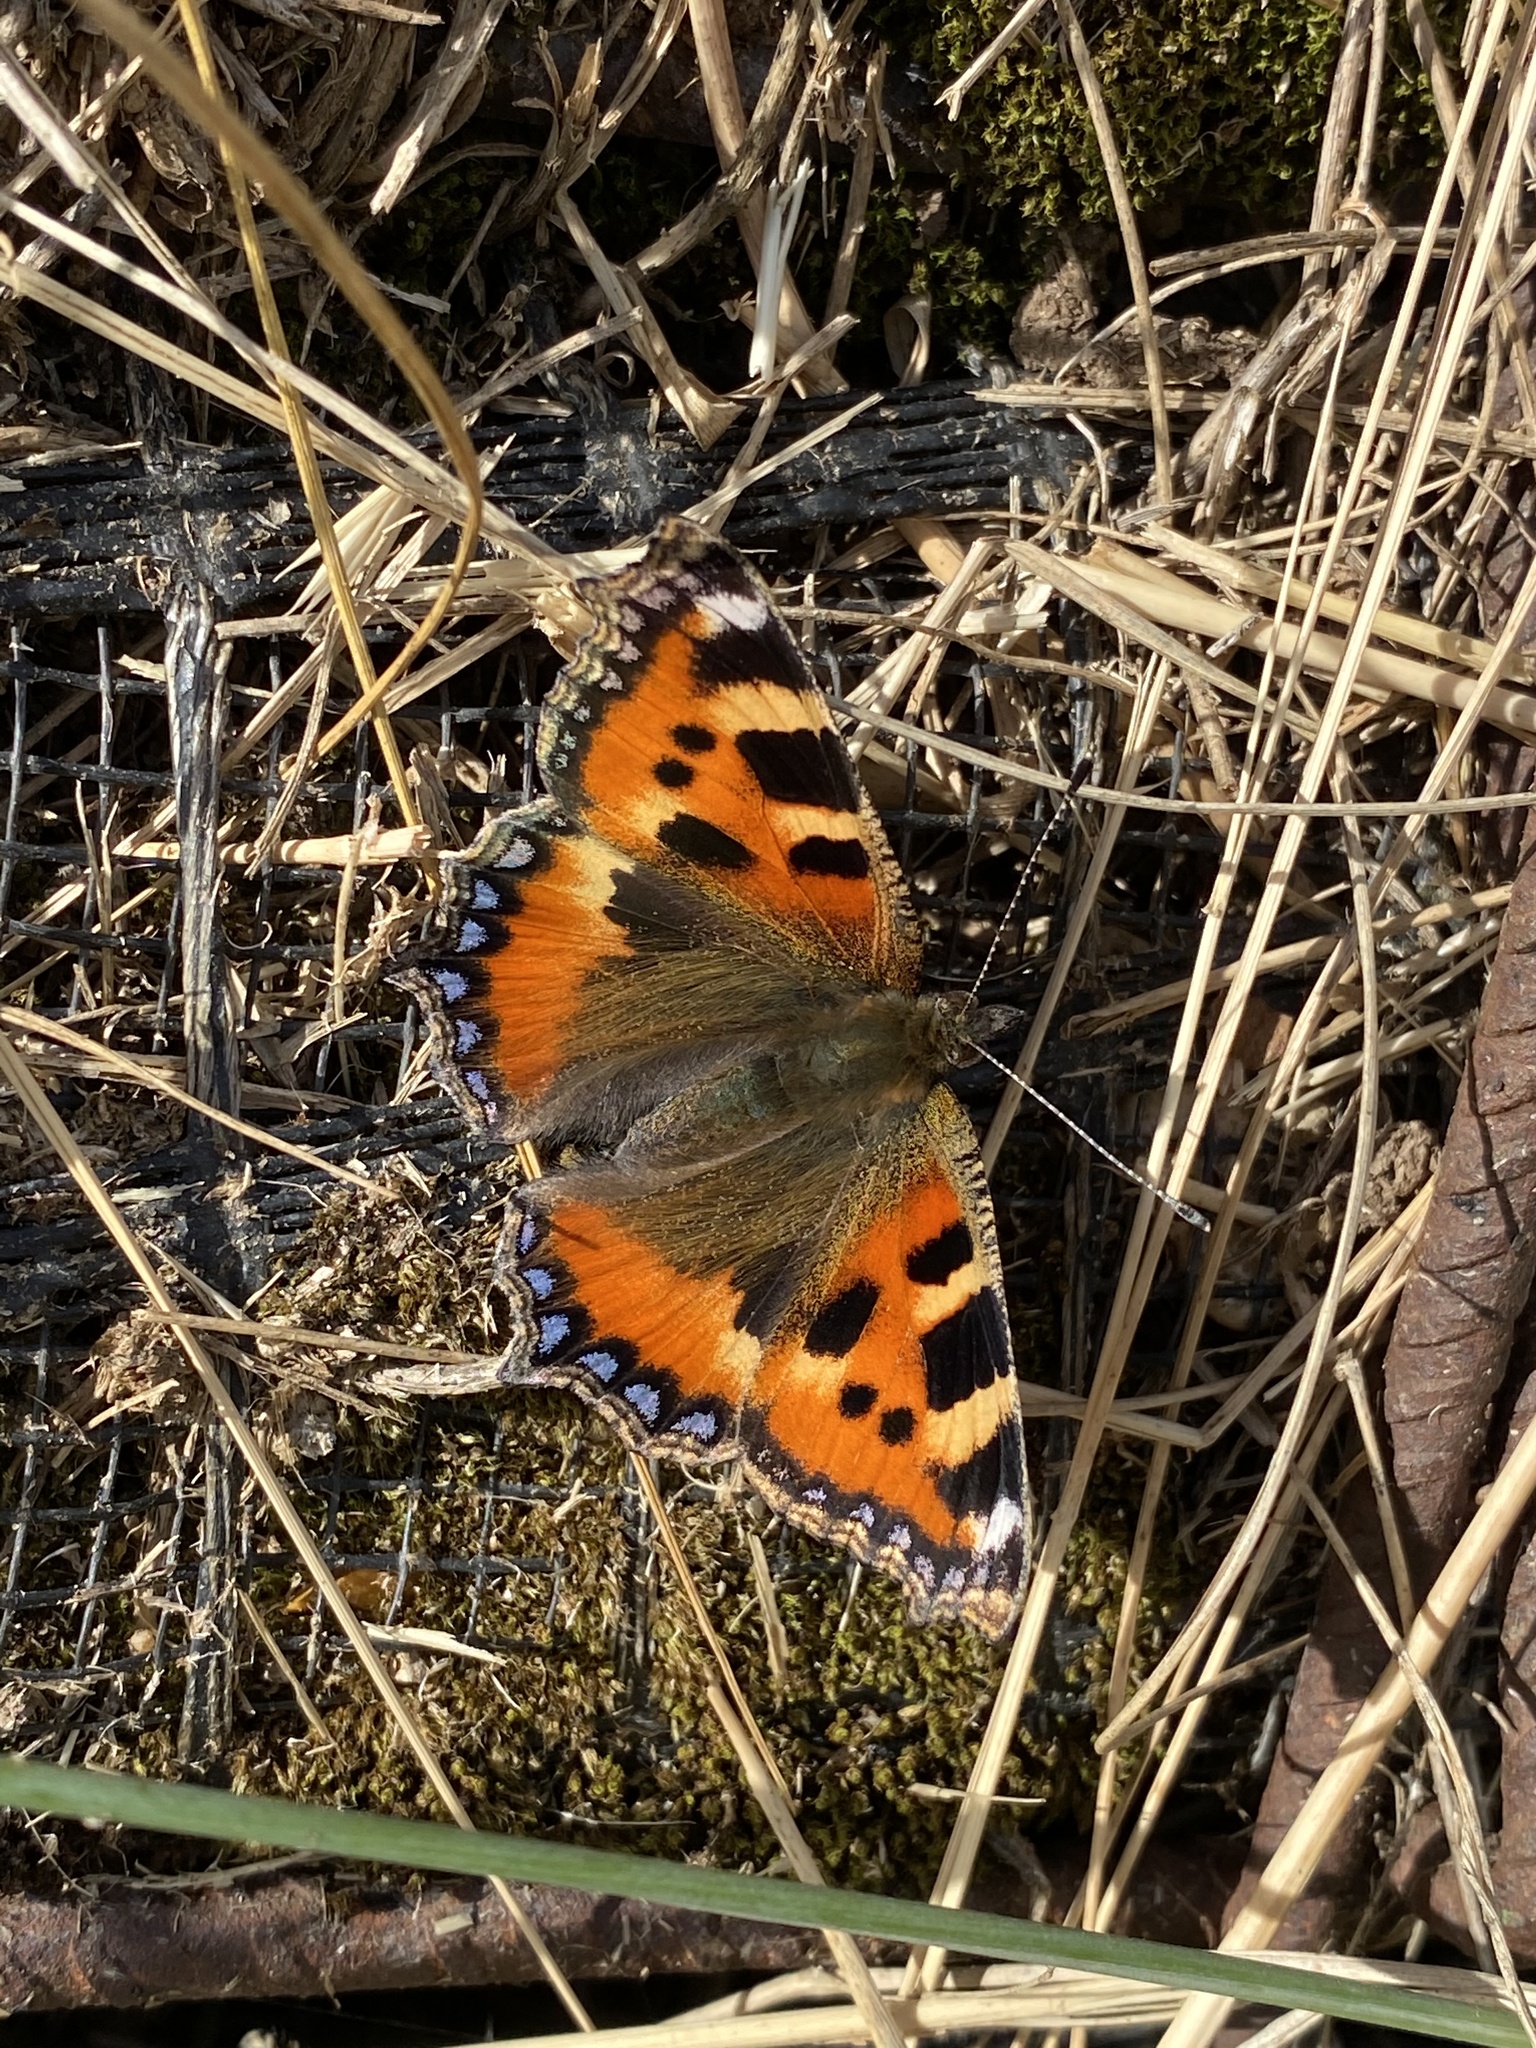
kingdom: Animalia
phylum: Arthropoda
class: Insecta
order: Lepidoptera
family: Nymphalidae
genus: Aglais
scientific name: Aglais urticae
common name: Small tortoiseshell
